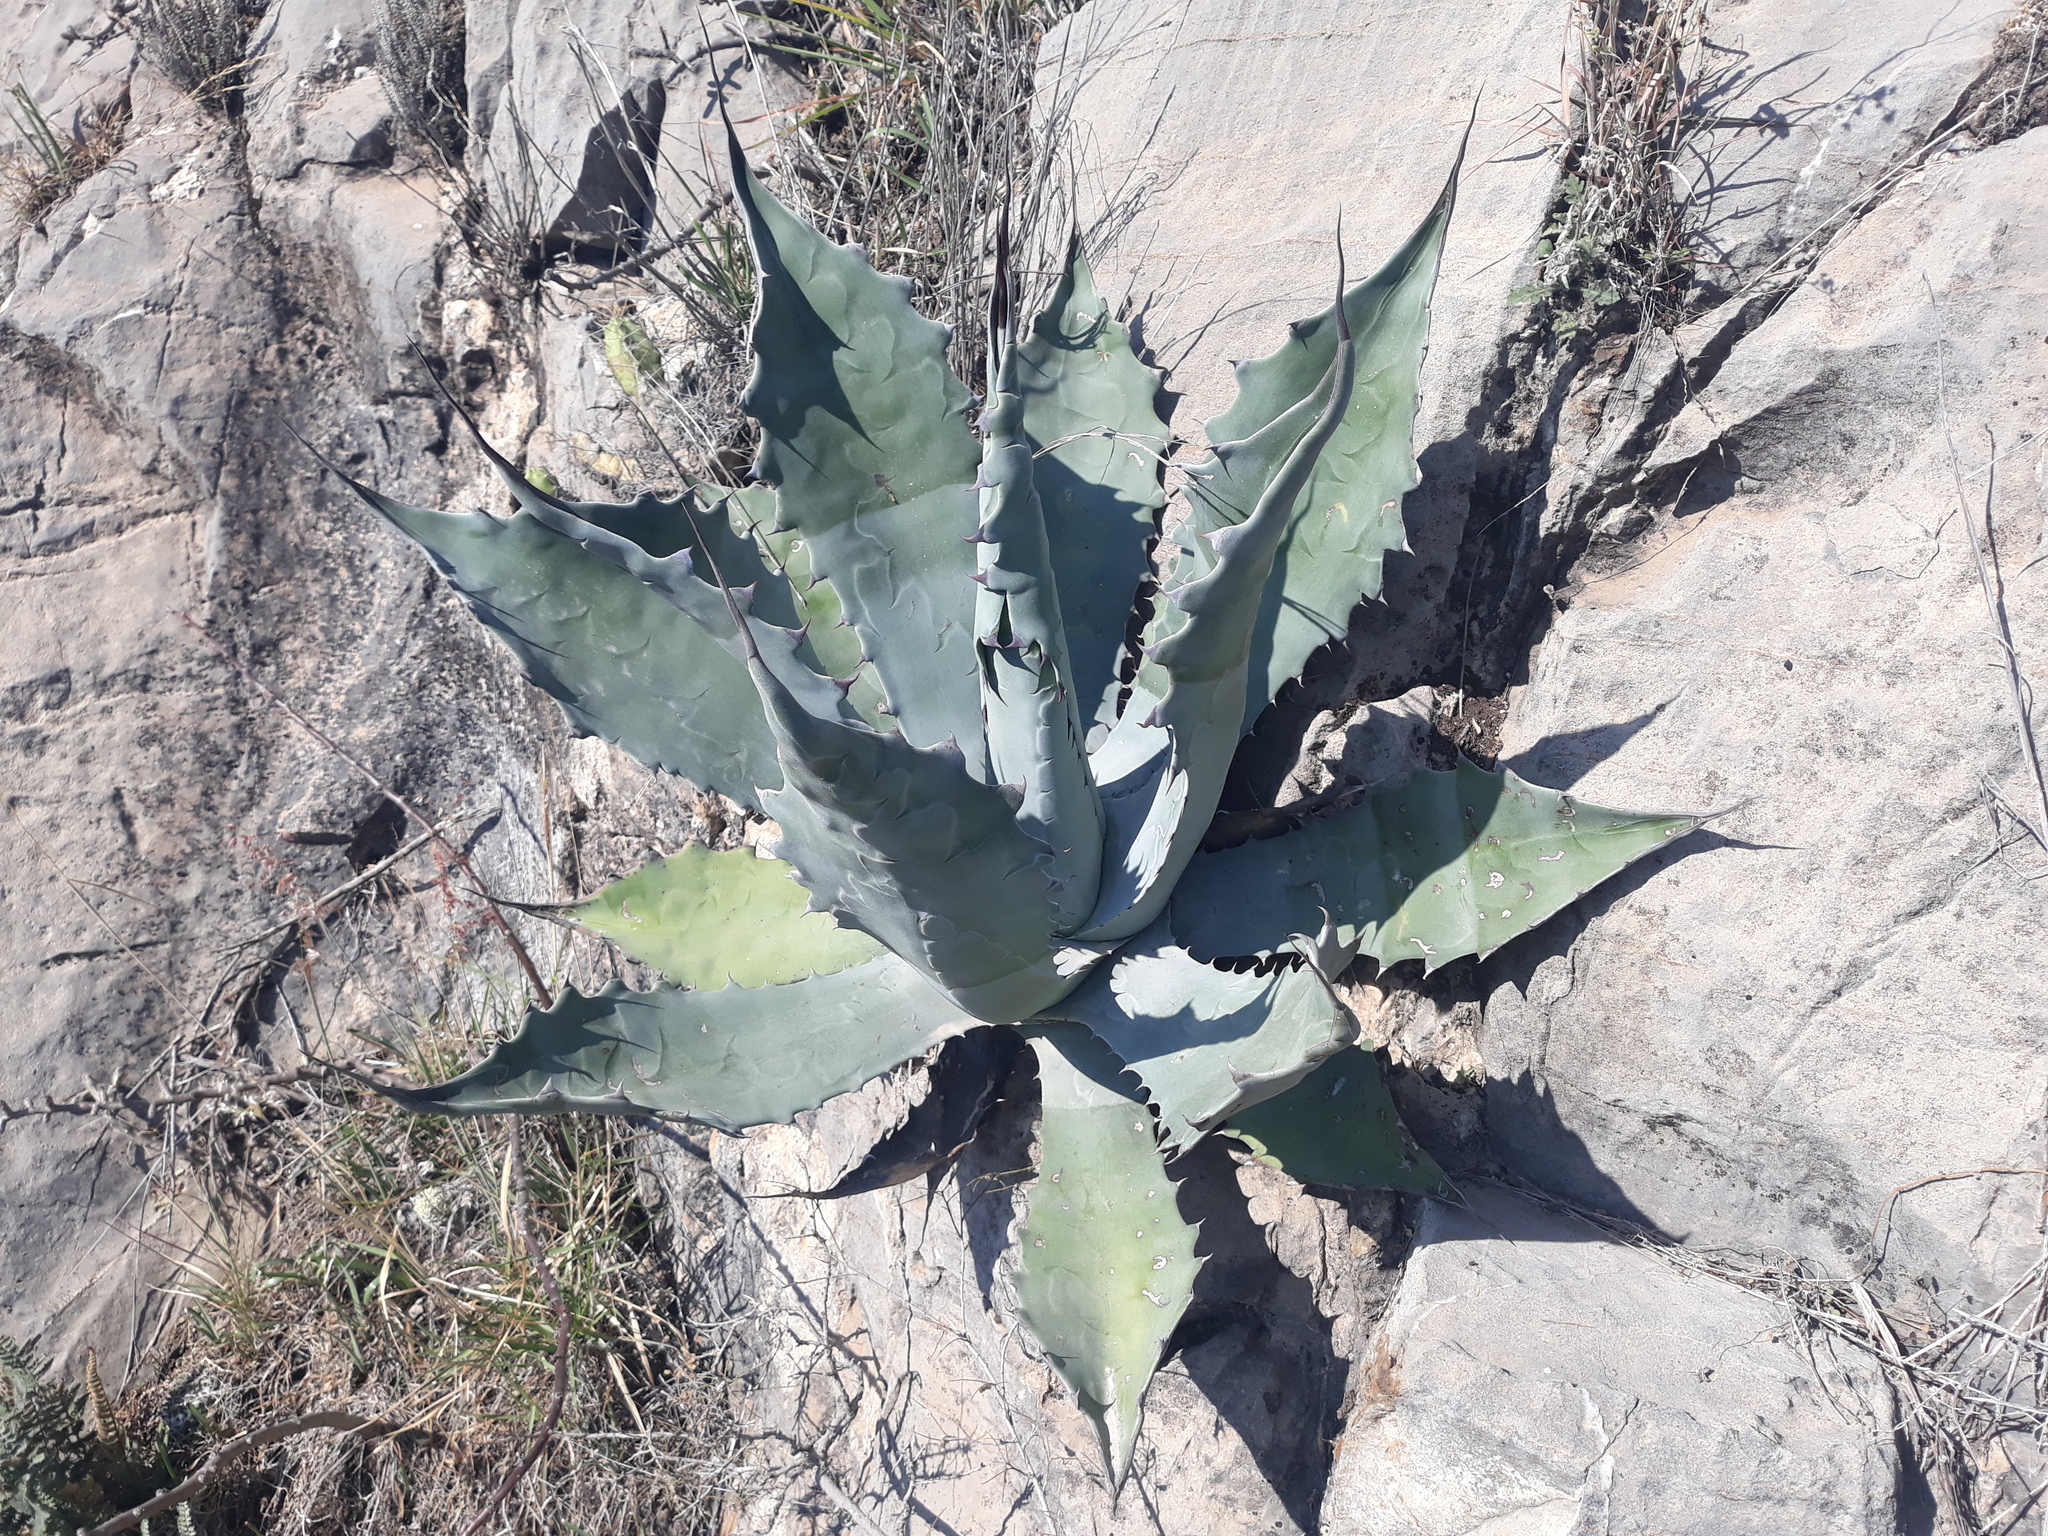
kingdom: Plantae
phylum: Tracheophyta
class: Liliopsida
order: Asparagales
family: Asparagaceae
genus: Agave
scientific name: Agave salmiana
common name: Pulque agave
